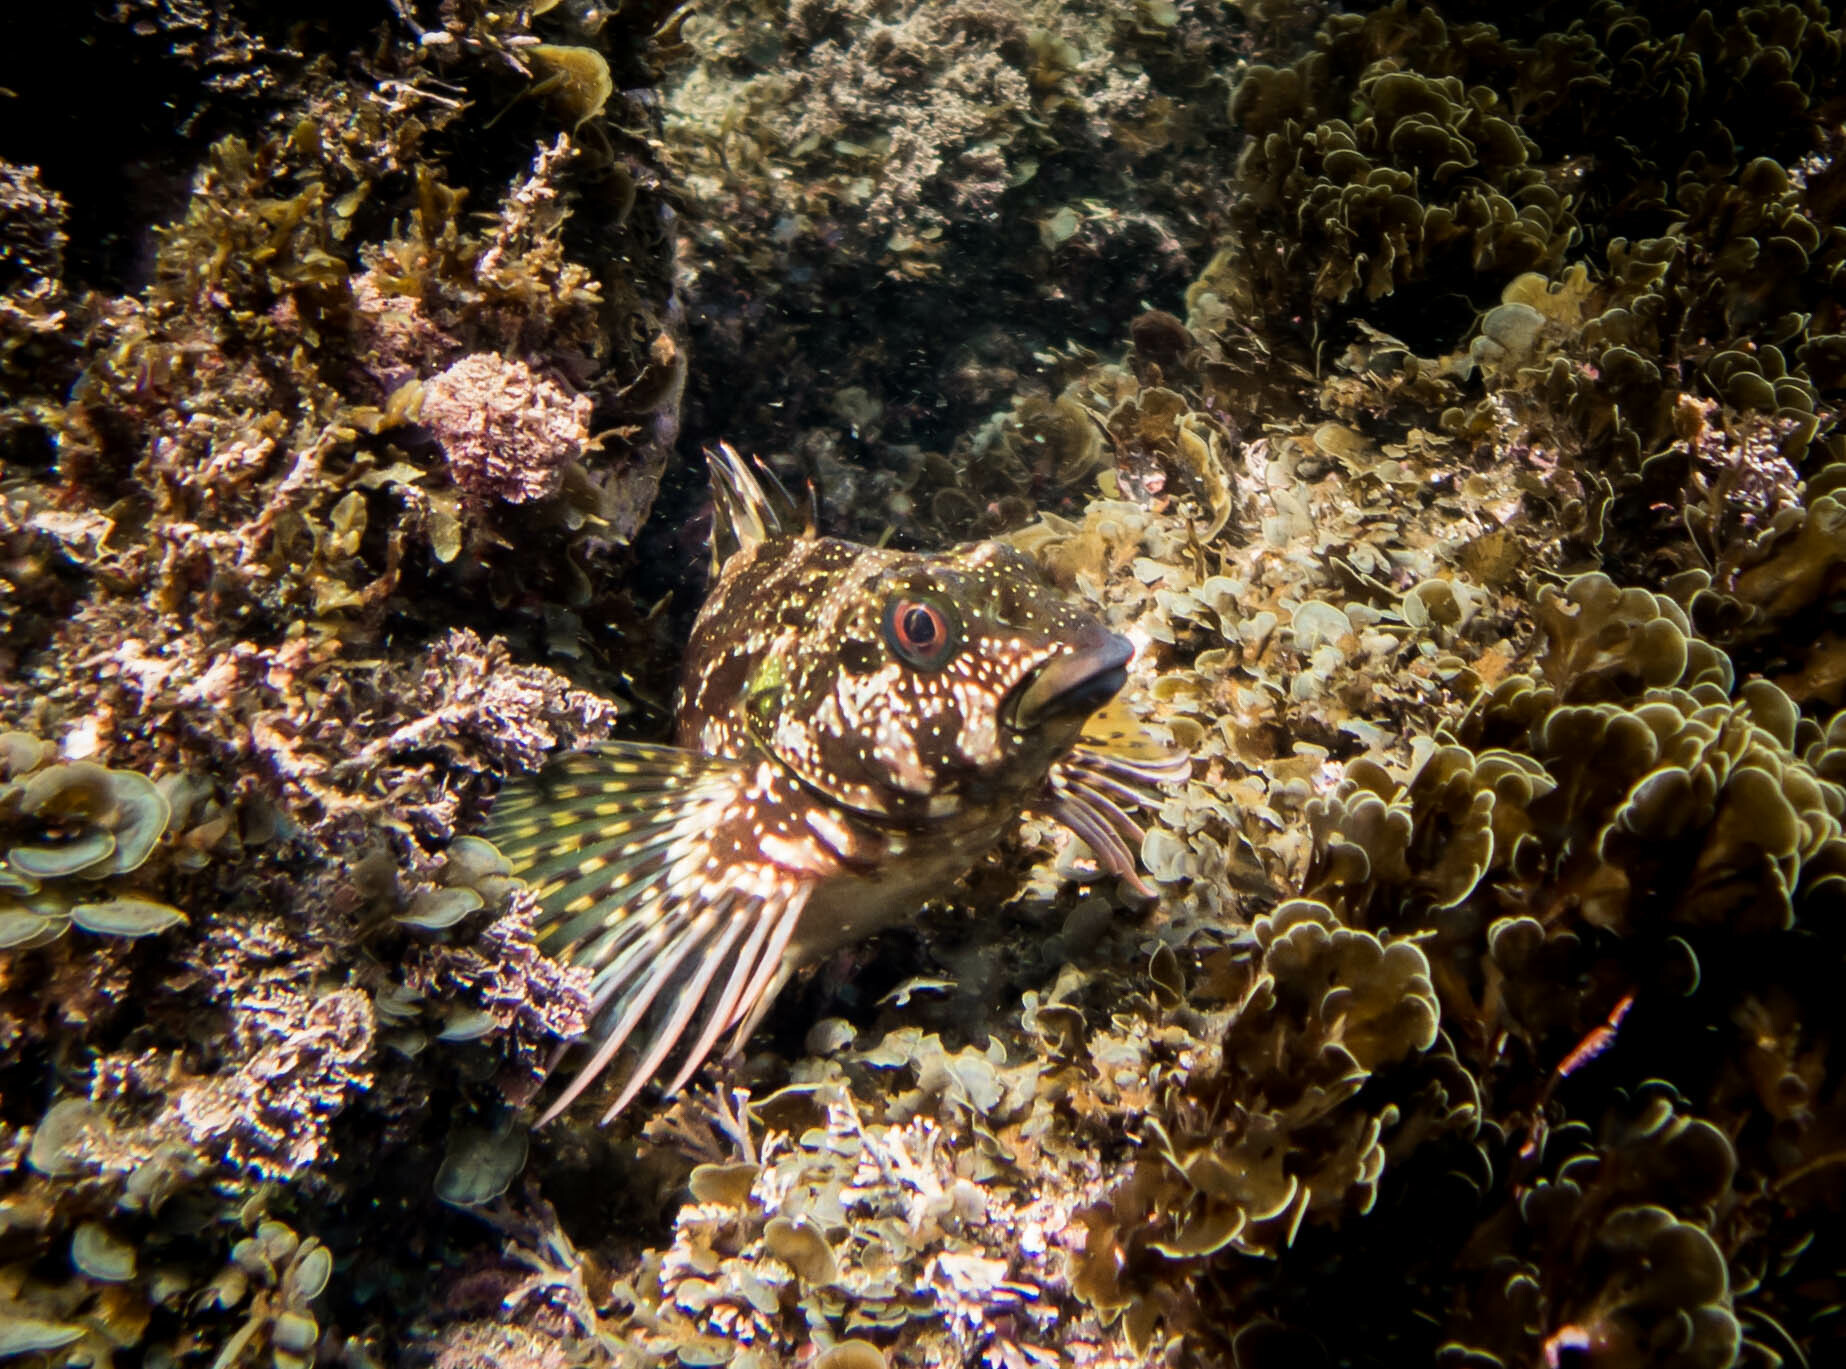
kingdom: Animalia
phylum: Chordata
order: Perciformes
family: Chironemidae
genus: Chironemus
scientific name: Chironemus marmoratus
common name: Kelpfish
